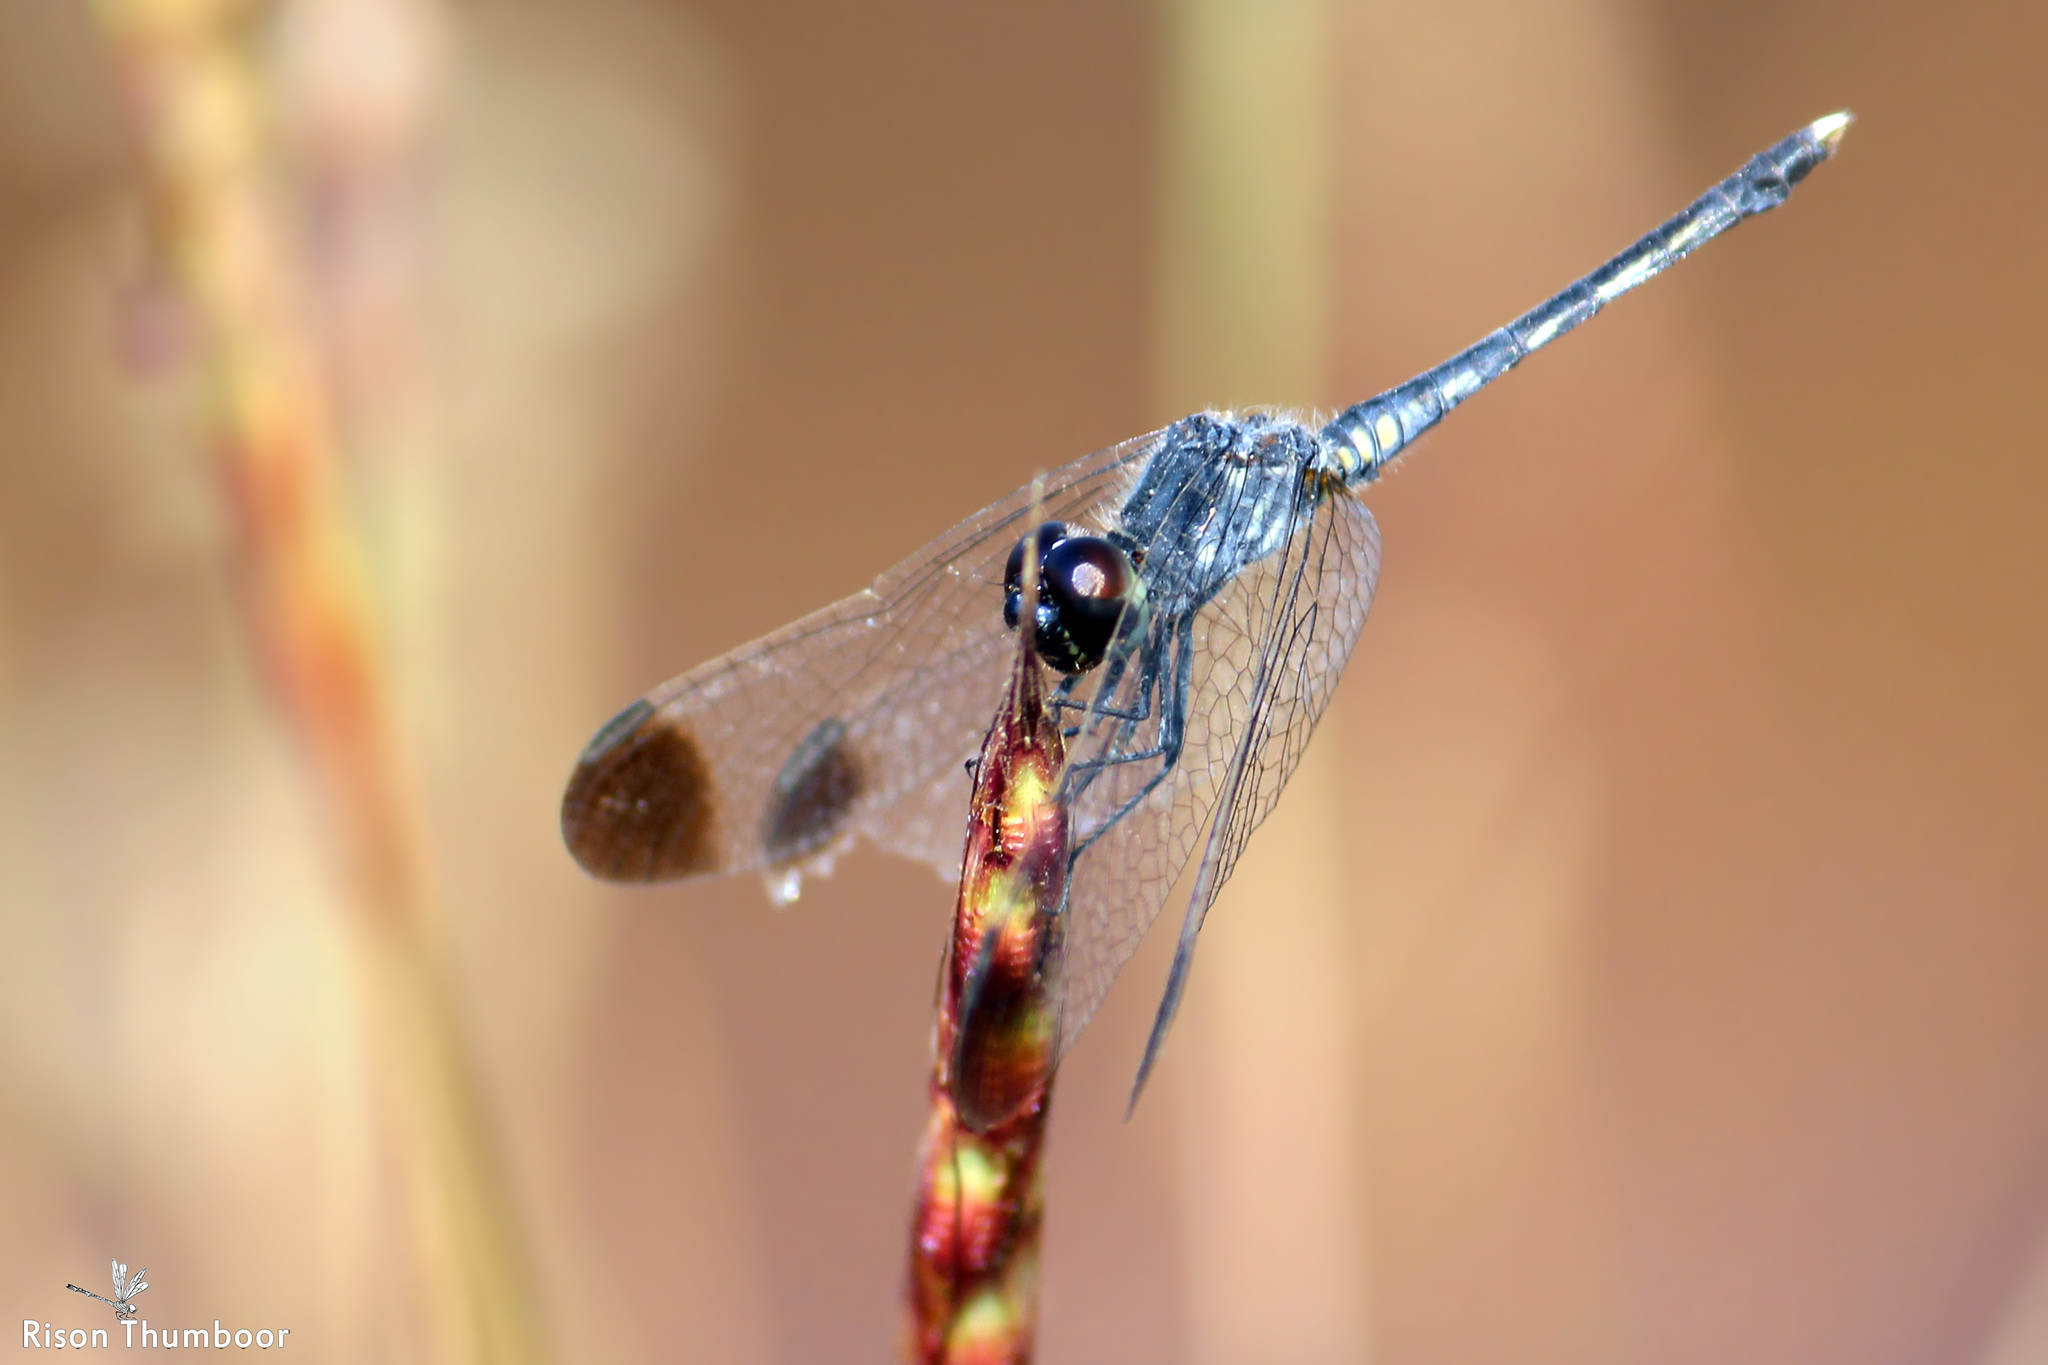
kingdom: Animalia
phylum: Arthropoda
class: Insecta
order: Odonata
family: Libellulidae
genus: Diplacodes
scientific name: Diplacodes nebulosa
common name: Black-tipped percher
